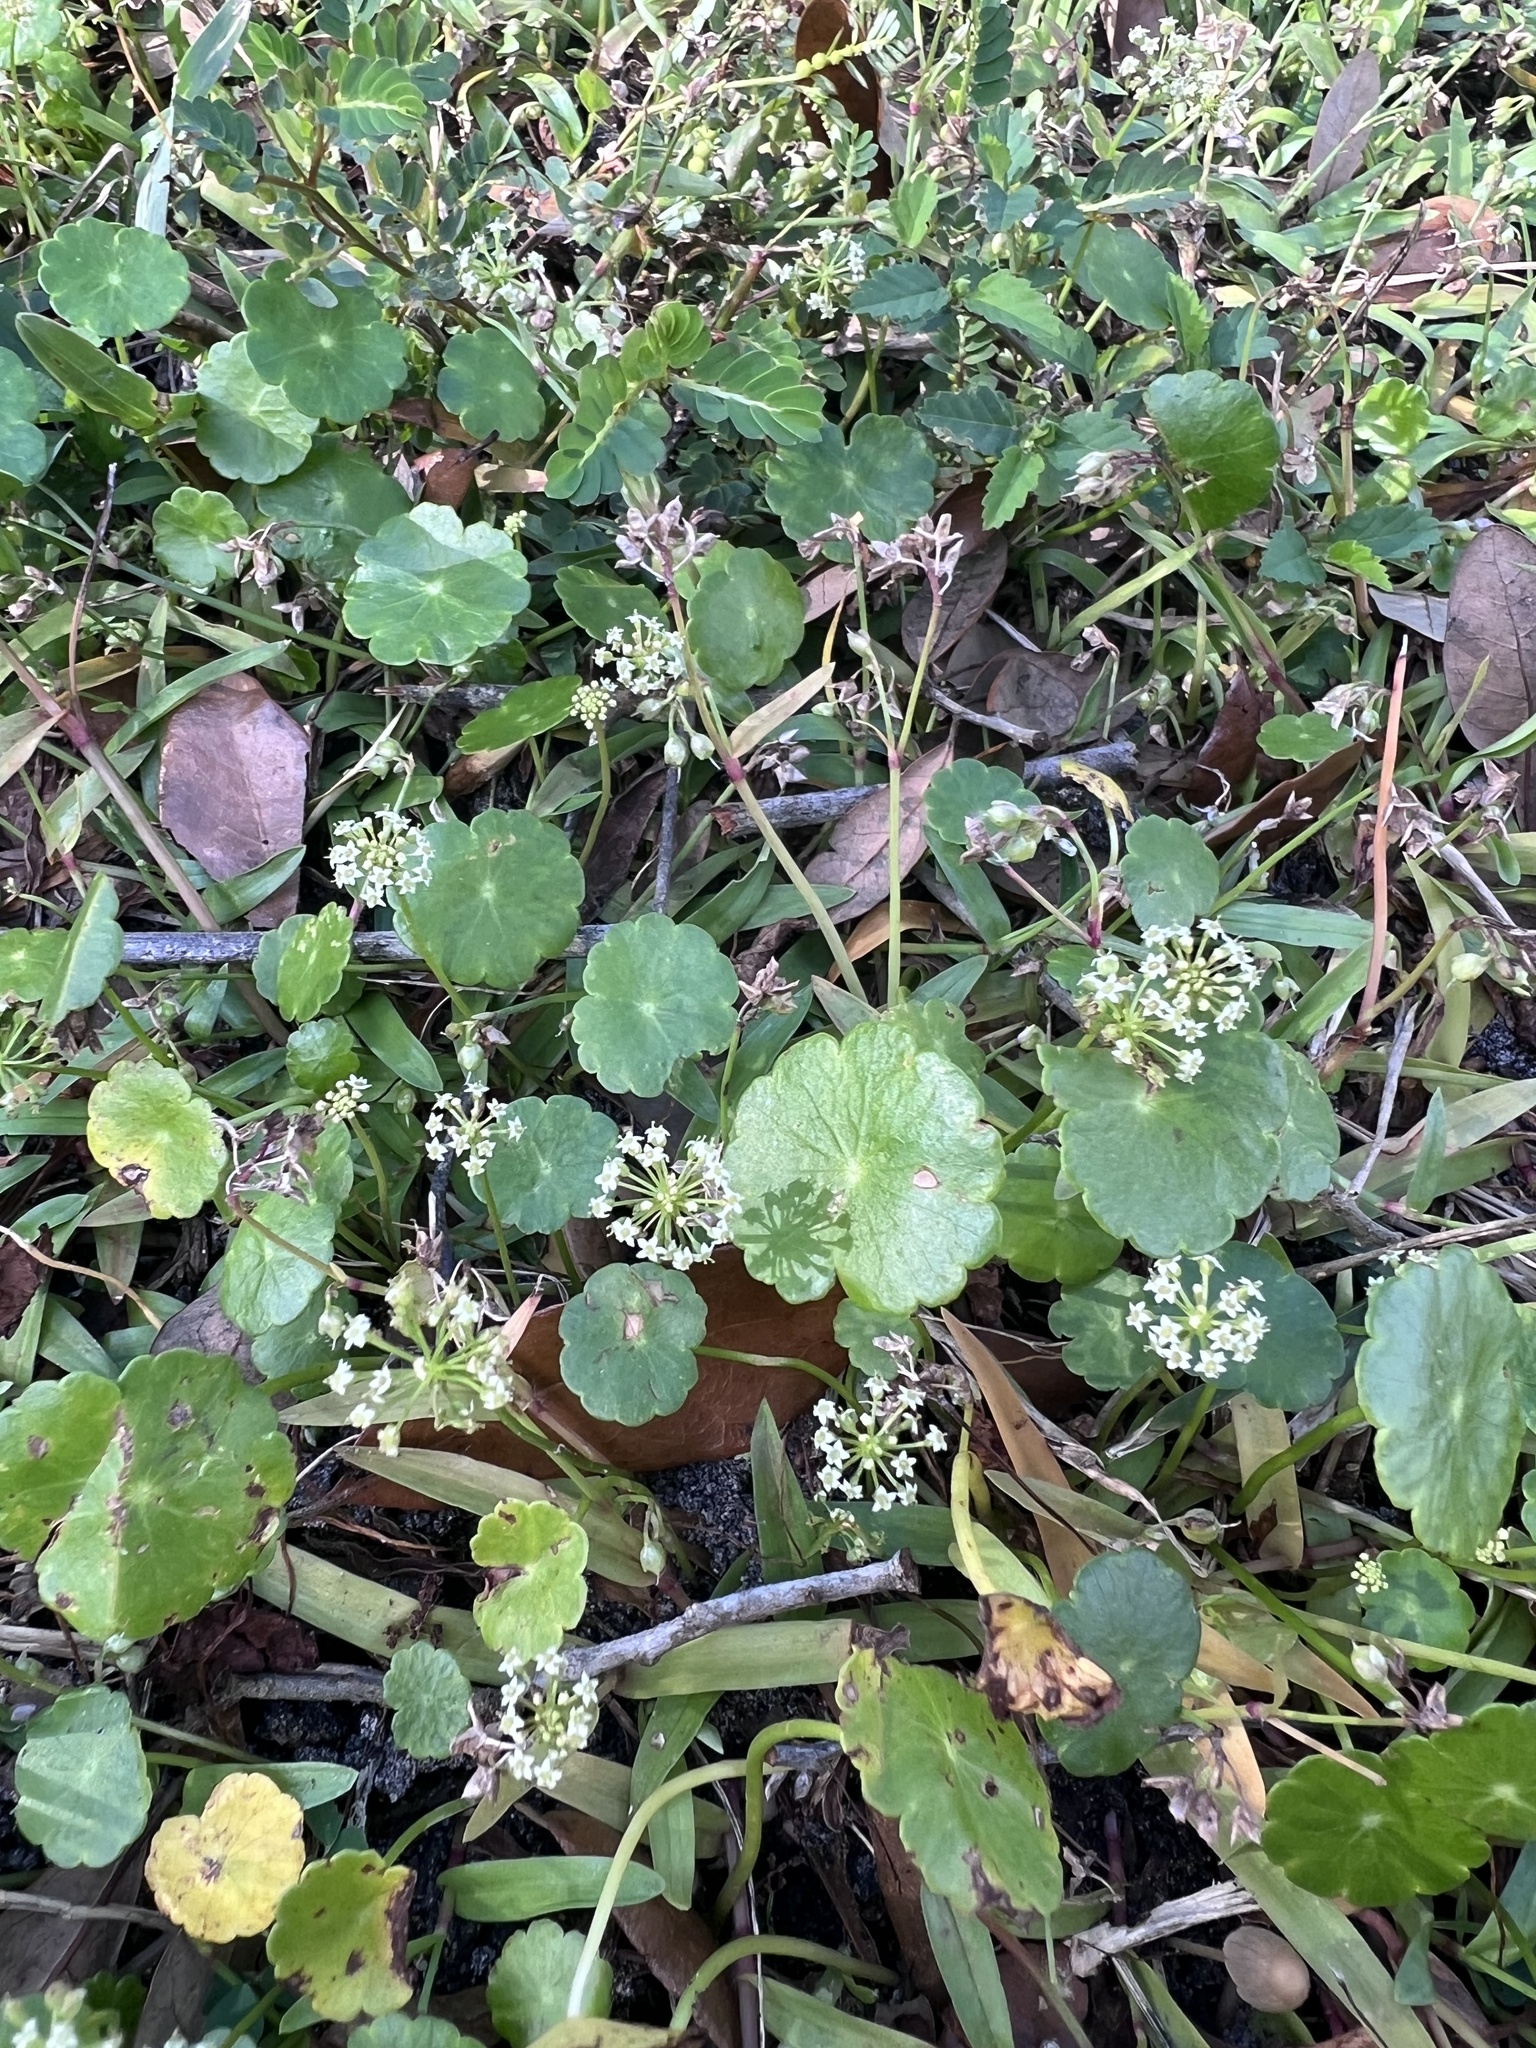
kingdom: Plantae
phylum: Tracheophyta
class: Magnoliopsida
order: Apiales
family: Araliaceae
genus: Hydrocotyle
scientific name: Hydrocotyle umbellata
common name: Water pennywort
